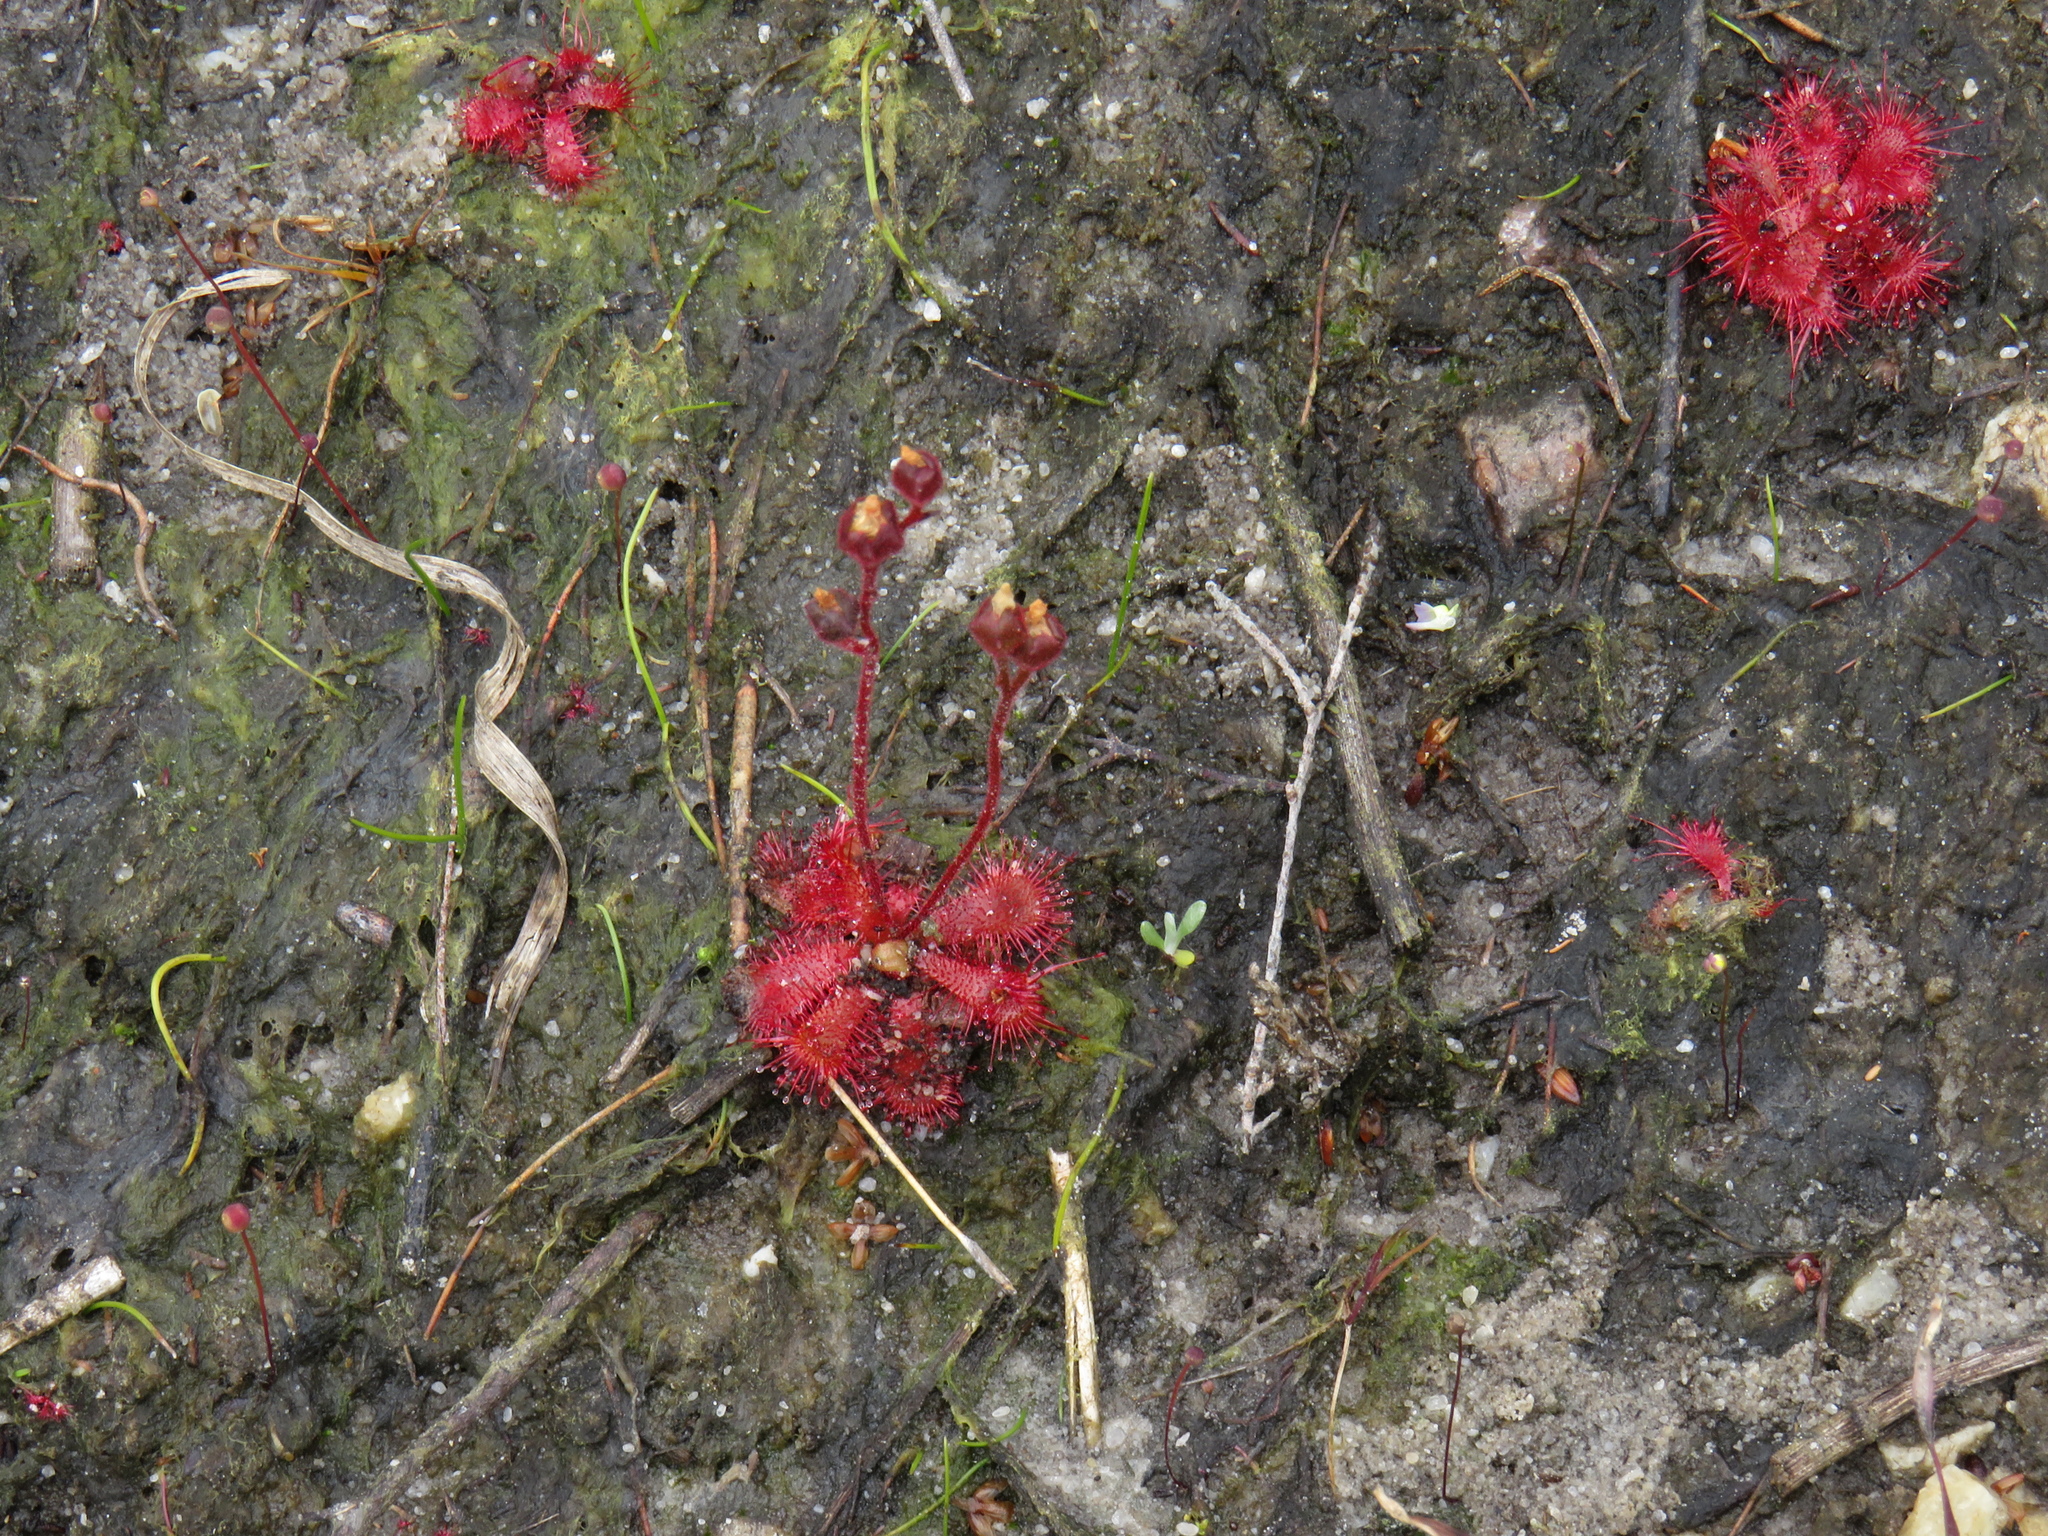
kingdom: Plantae
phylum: Tracheophyta
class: Magnoliopsida
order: Caryophyllales
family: Droseraceae
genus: Drosera
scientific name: Drosera trinervia
